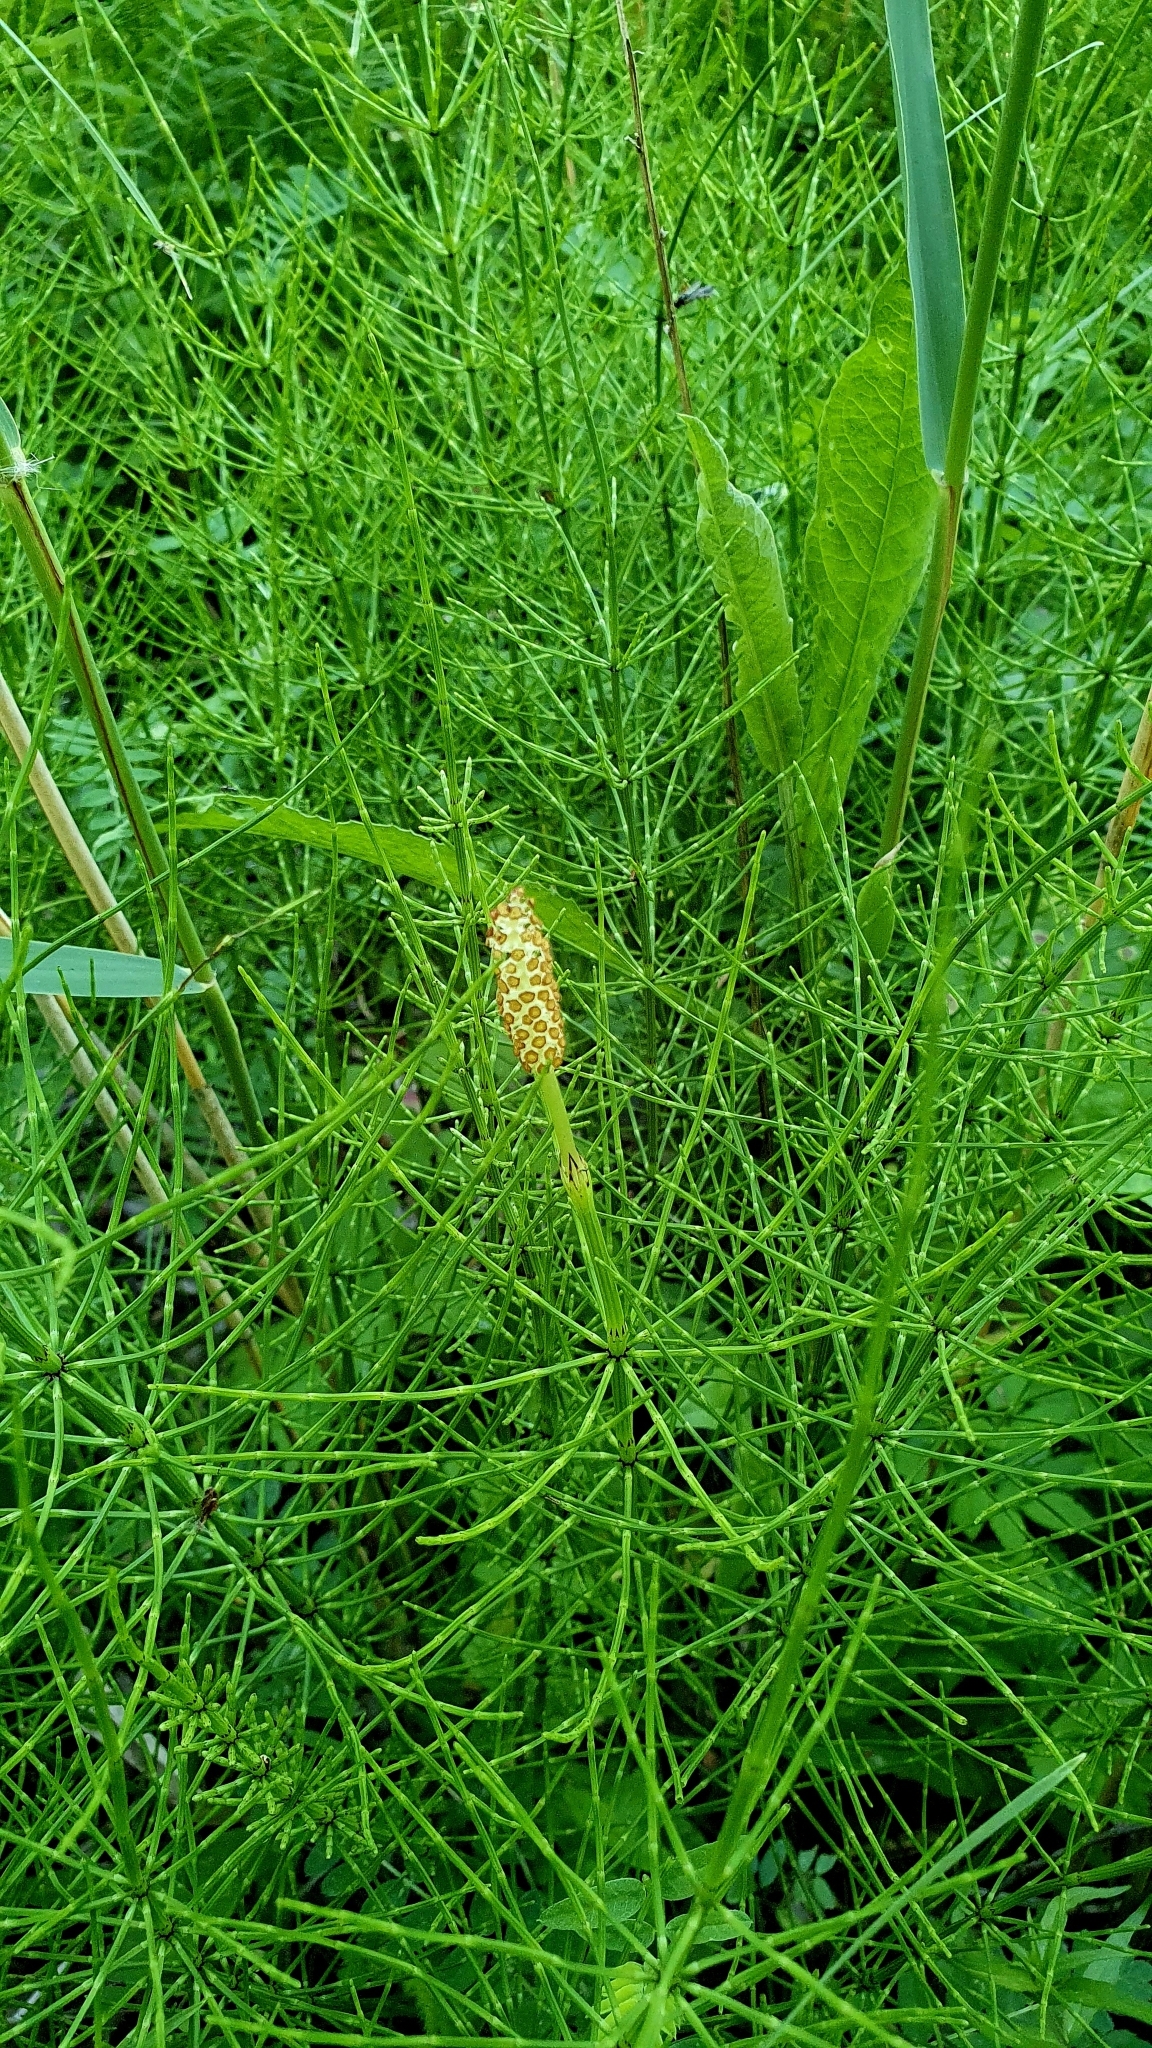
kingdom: Plantae
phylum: Tracheophyta
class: Polypodiopsida
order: Equisetales
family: Equisetaceae
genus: Equisetum
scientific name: Equisetum palustre
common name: Marsh horsetail
